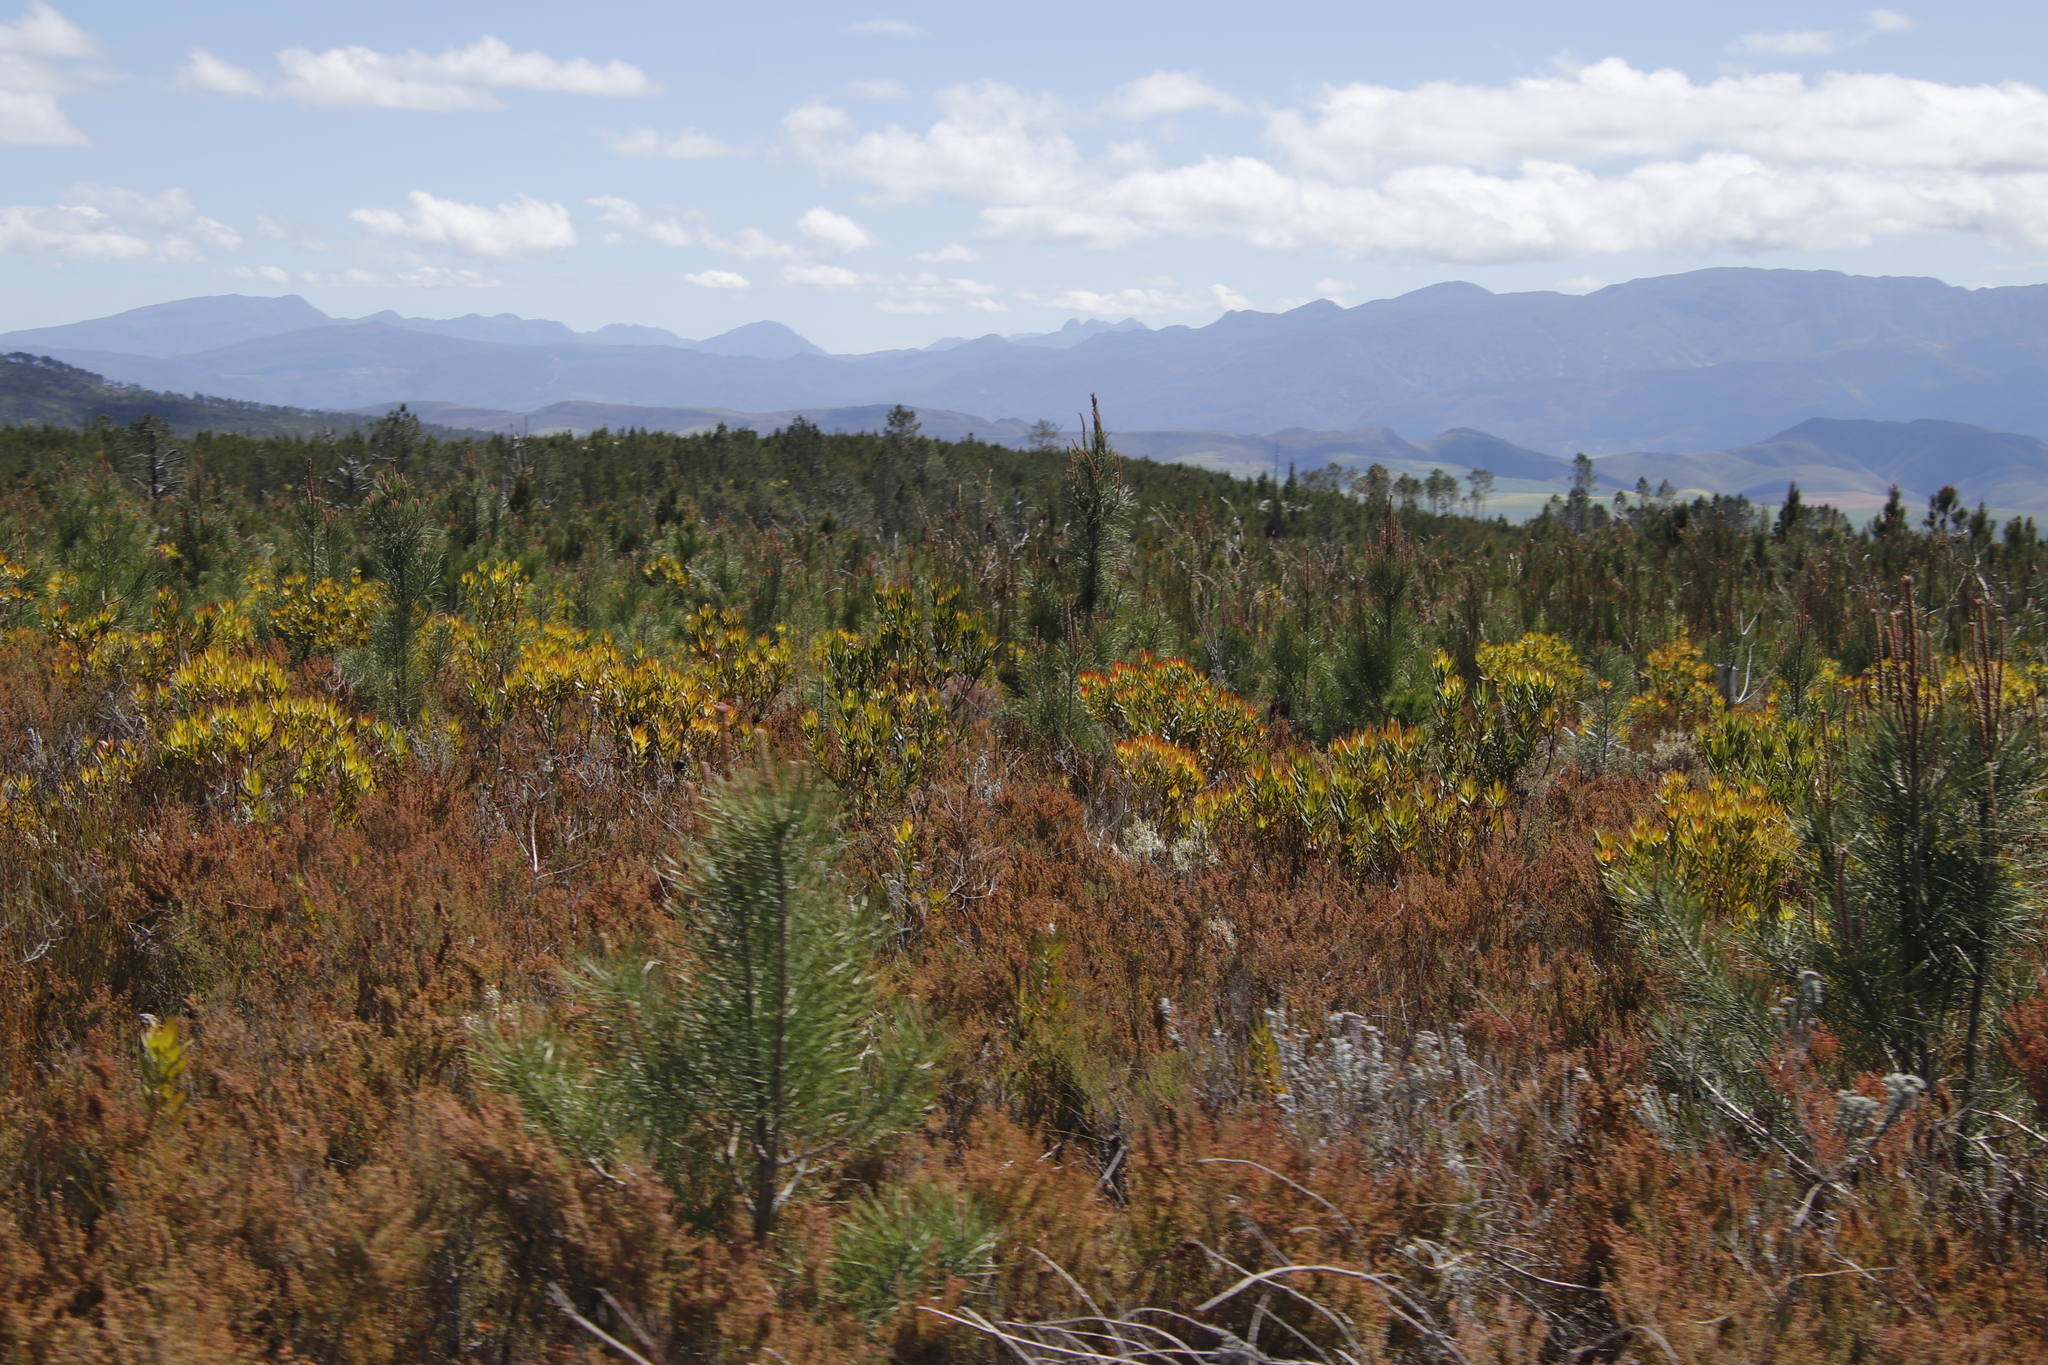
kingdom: Plantae
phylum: Tracheophyta
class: Magnoliopsida
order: Proteales
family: Proteaceae
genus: Leucadendron
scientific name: Leucadendron laureolum
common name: Golden sunshinebush
